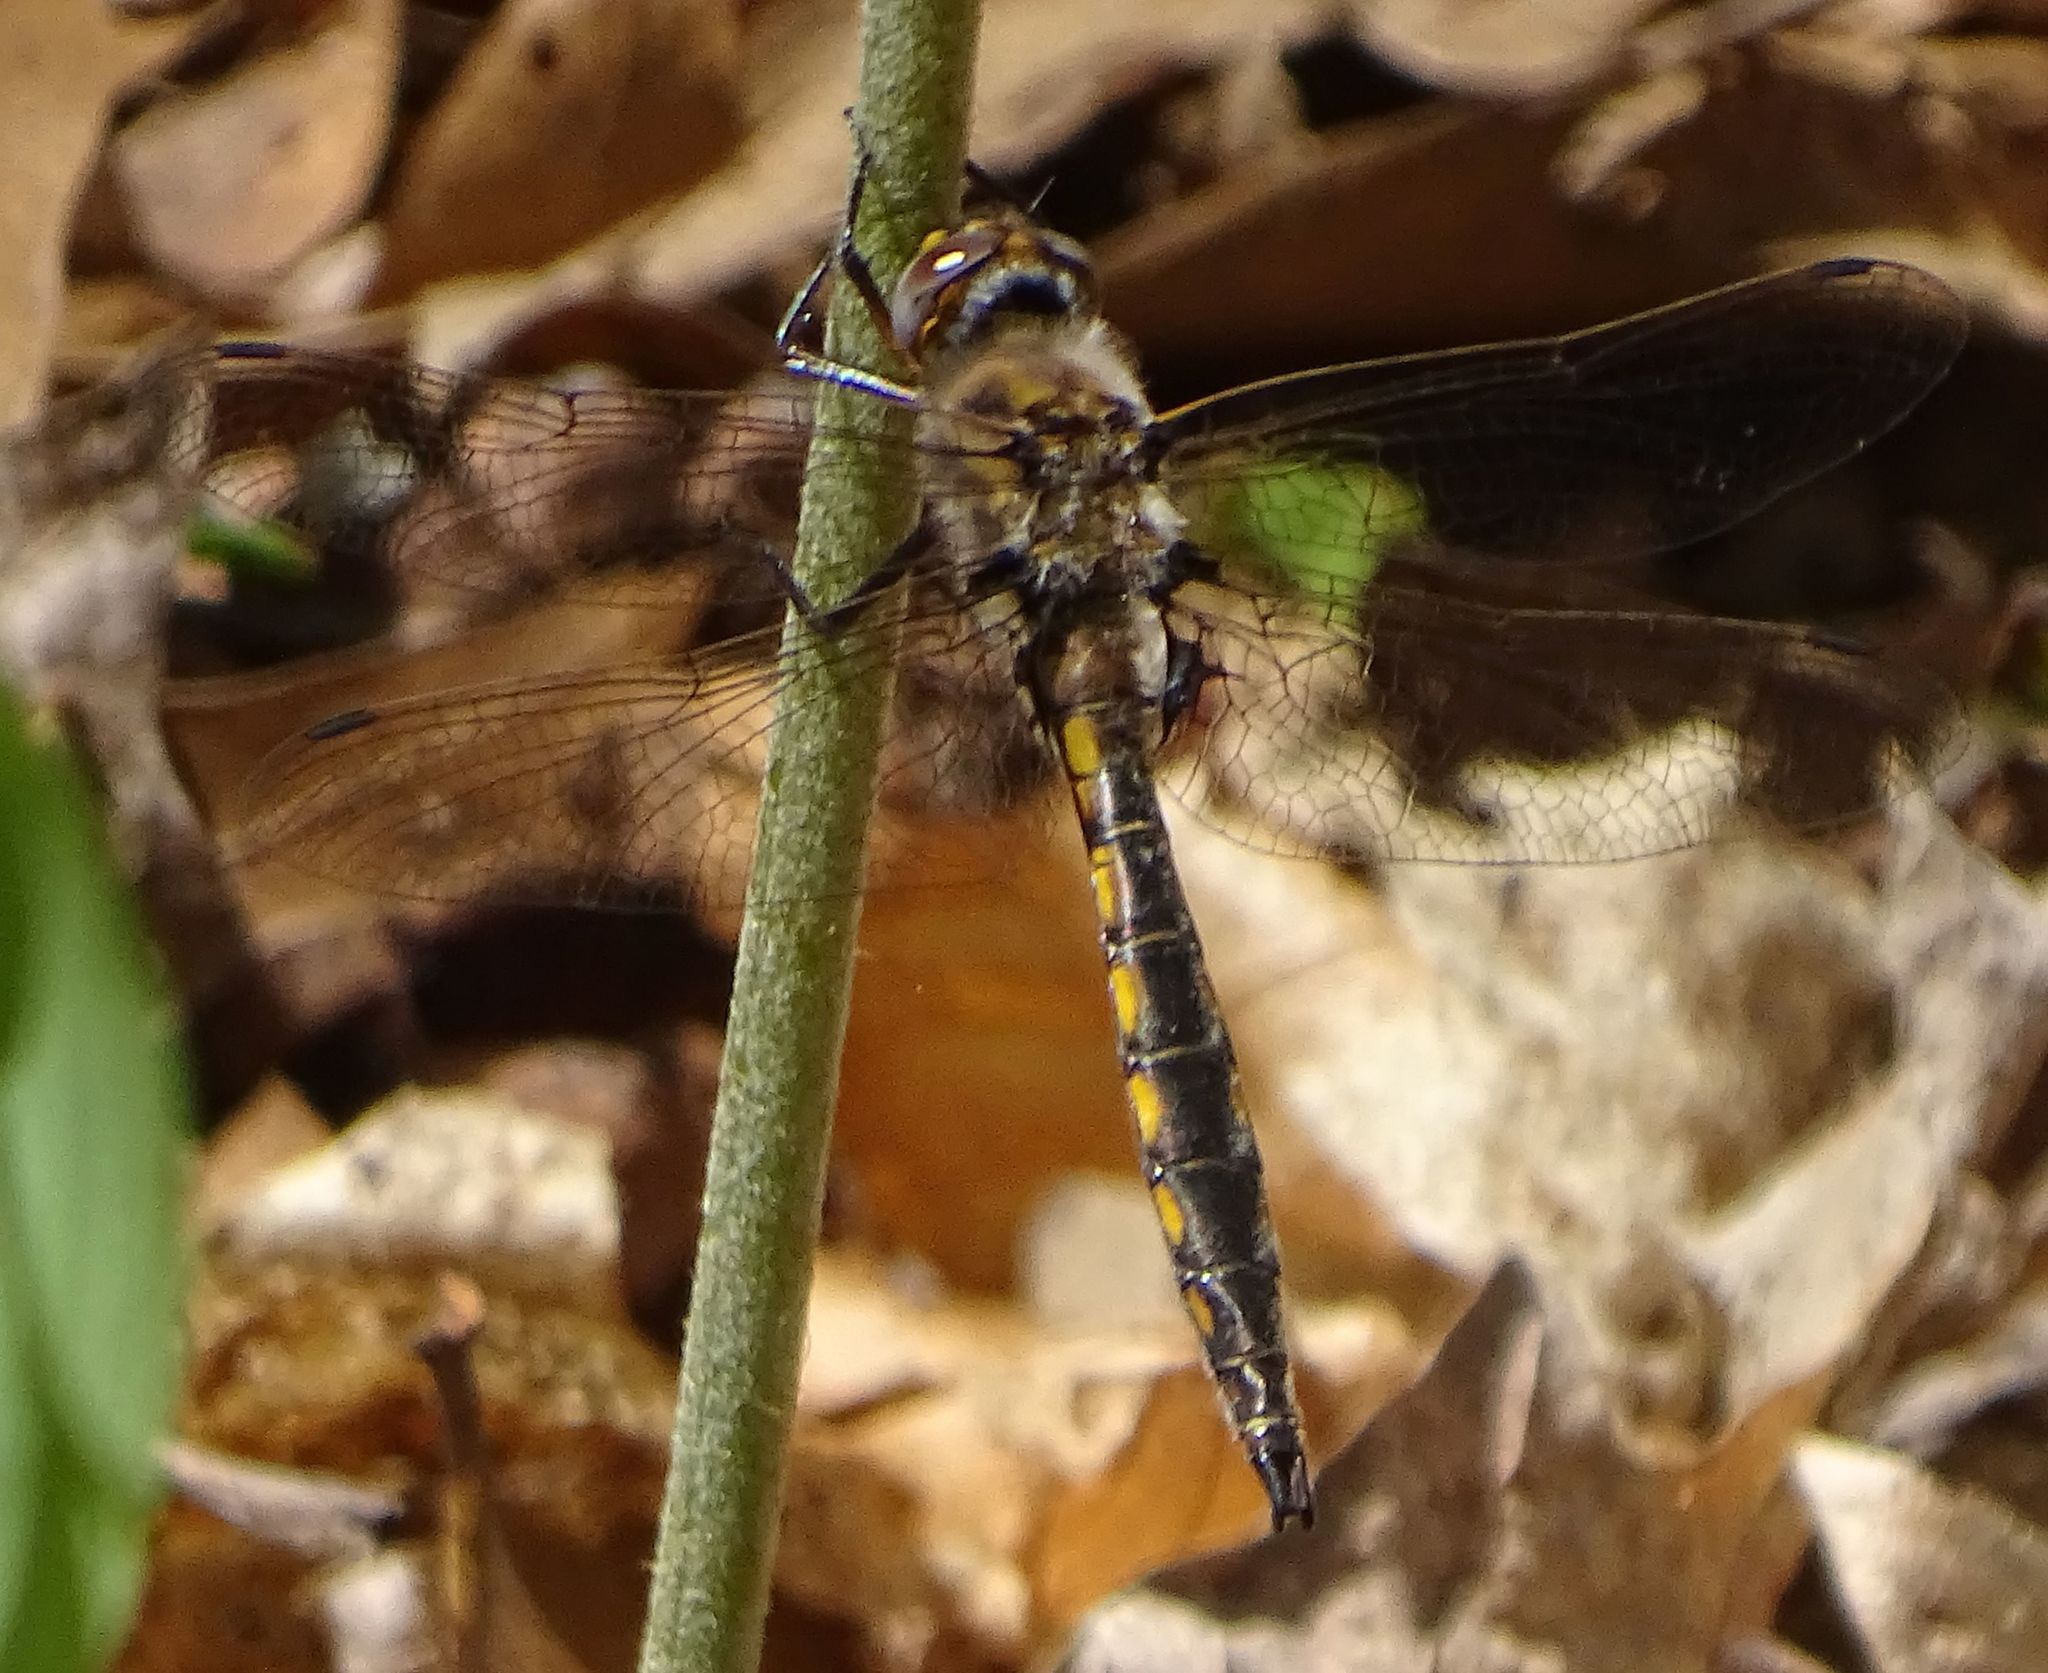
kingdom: Animalia
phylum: Arthropoda
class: Insecta
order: Odonata
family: Corduliidae
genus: Epitheca
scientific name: Epitheca canis
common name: Beaverpond baskettail
